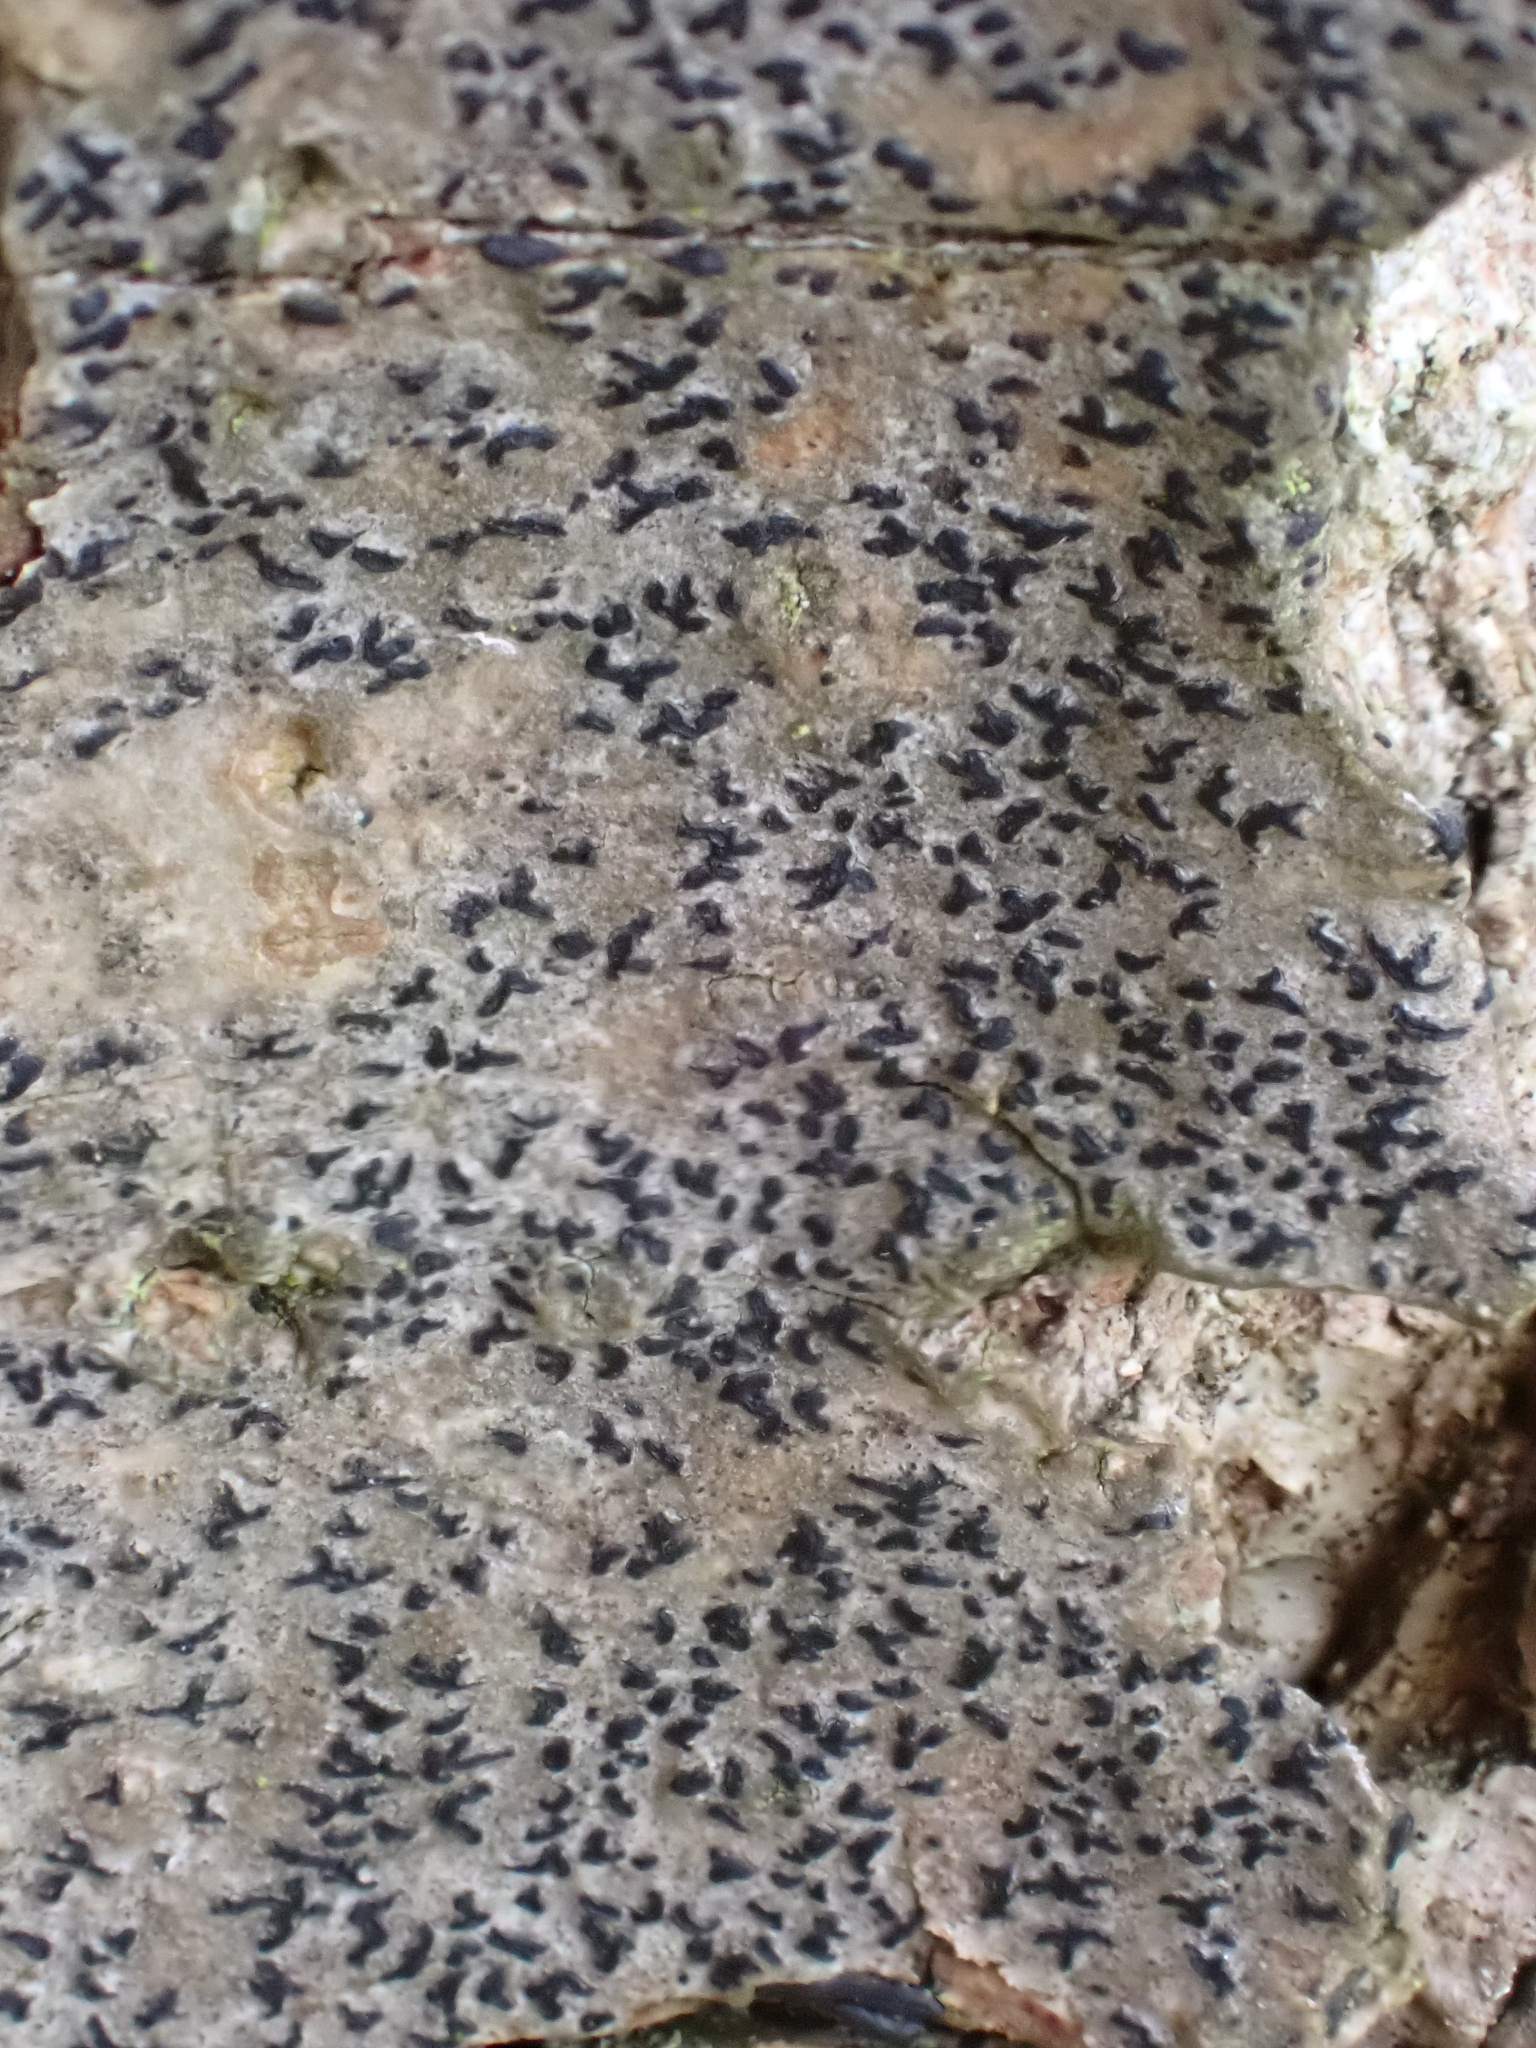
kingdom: Fungi
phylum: Ascomycota
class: Arthoniomycetes
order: Arthoniales
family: Roccellaceae
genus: Pseudoschismatomma
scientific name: Pseudoschismatomma rufescens
